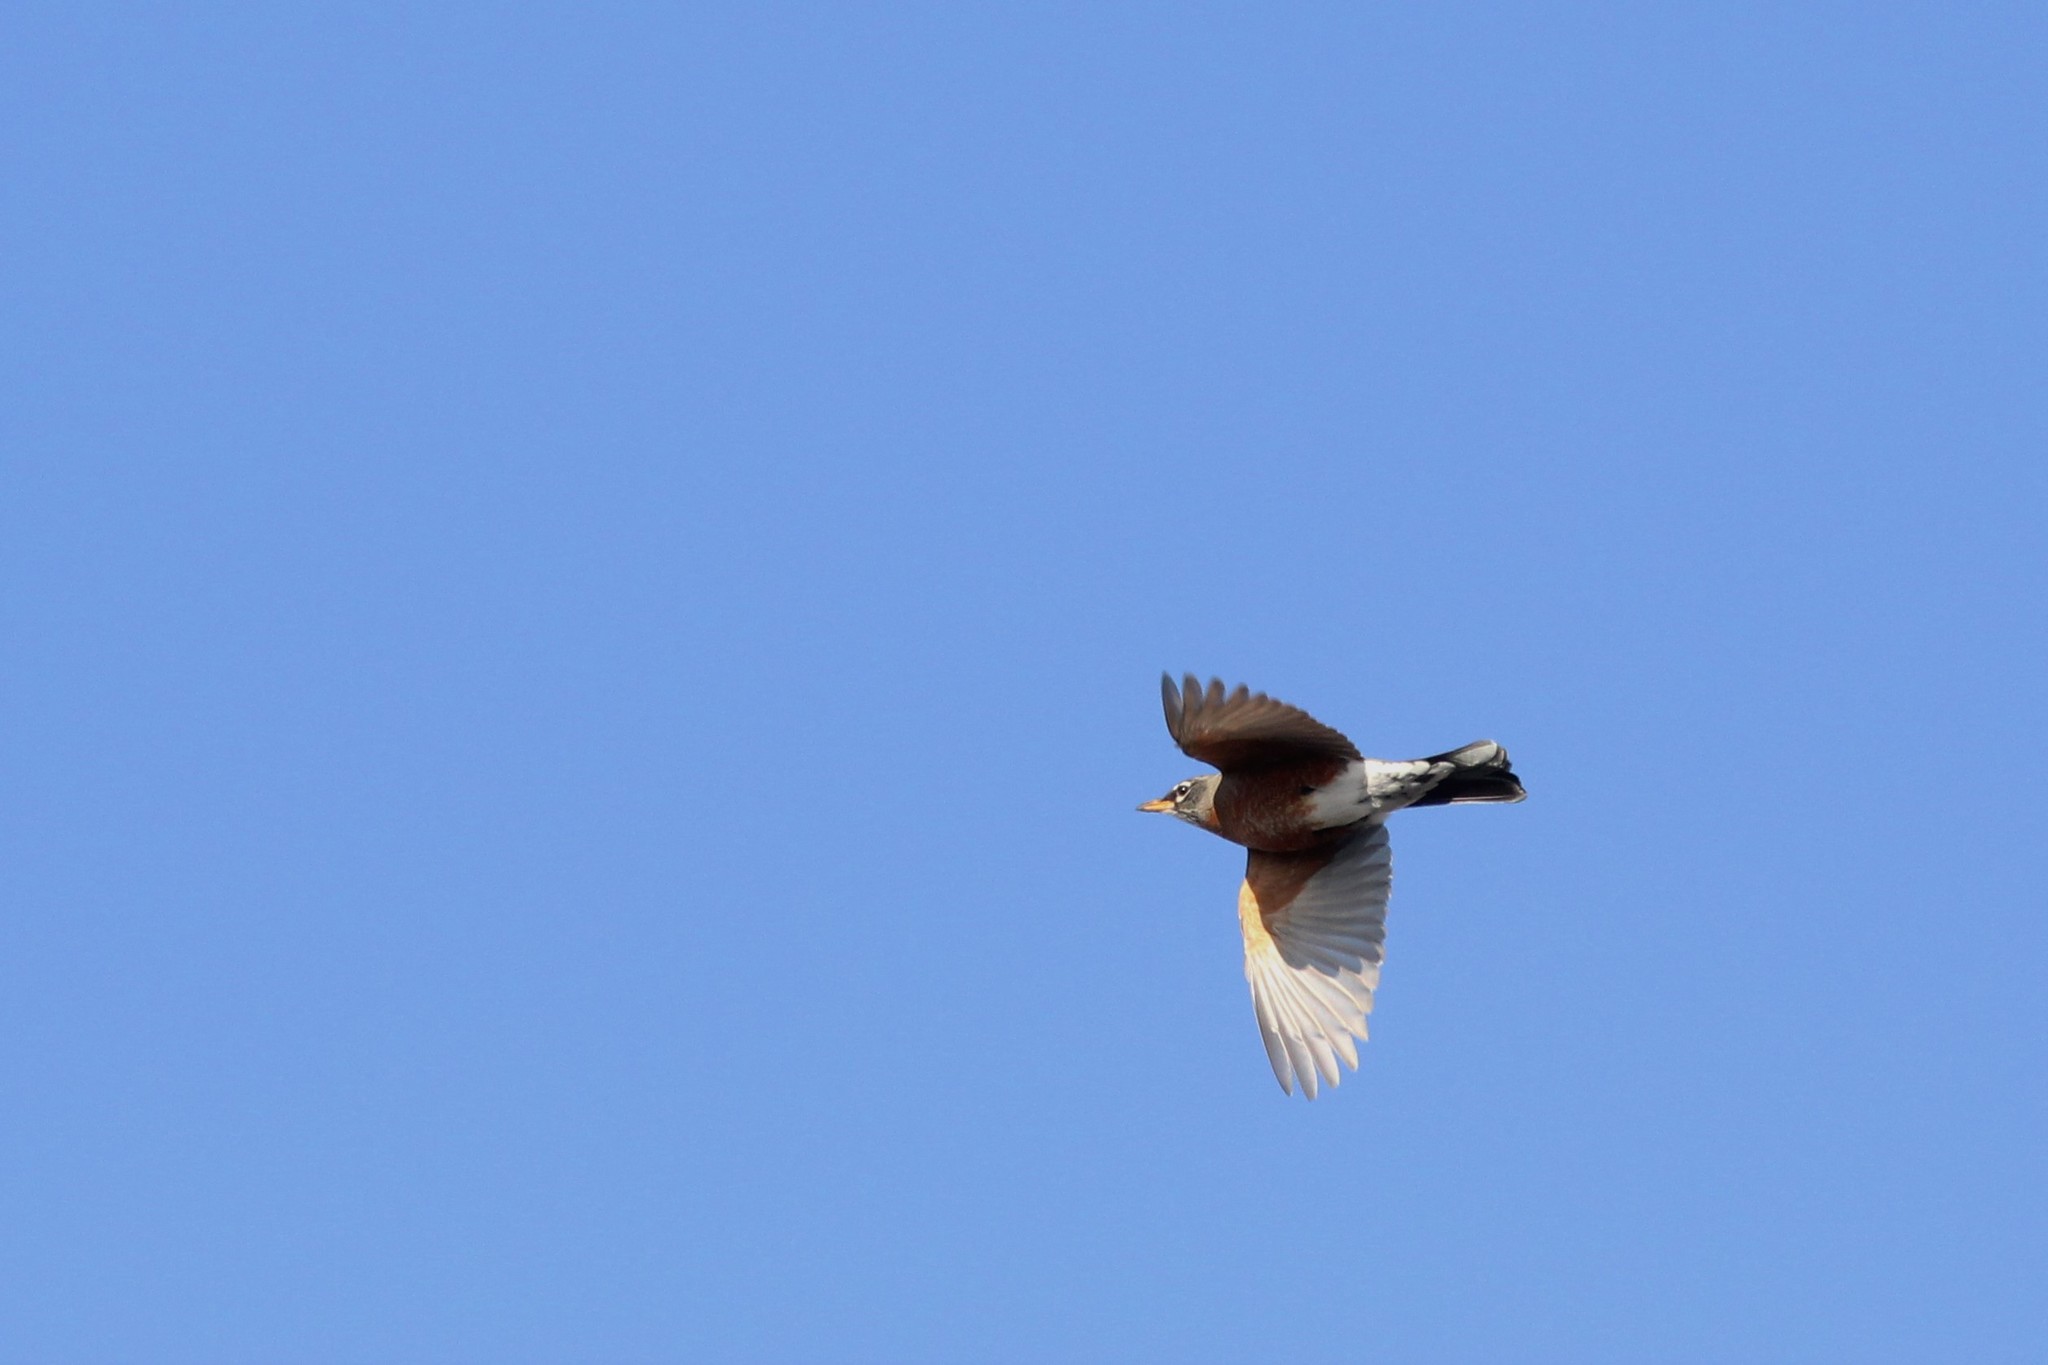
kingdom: Animalia
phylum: Chordata
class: Aves
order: Passeriformes
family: Turdidae
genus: Turdus
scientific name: Turdus migratorius
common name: American robin
